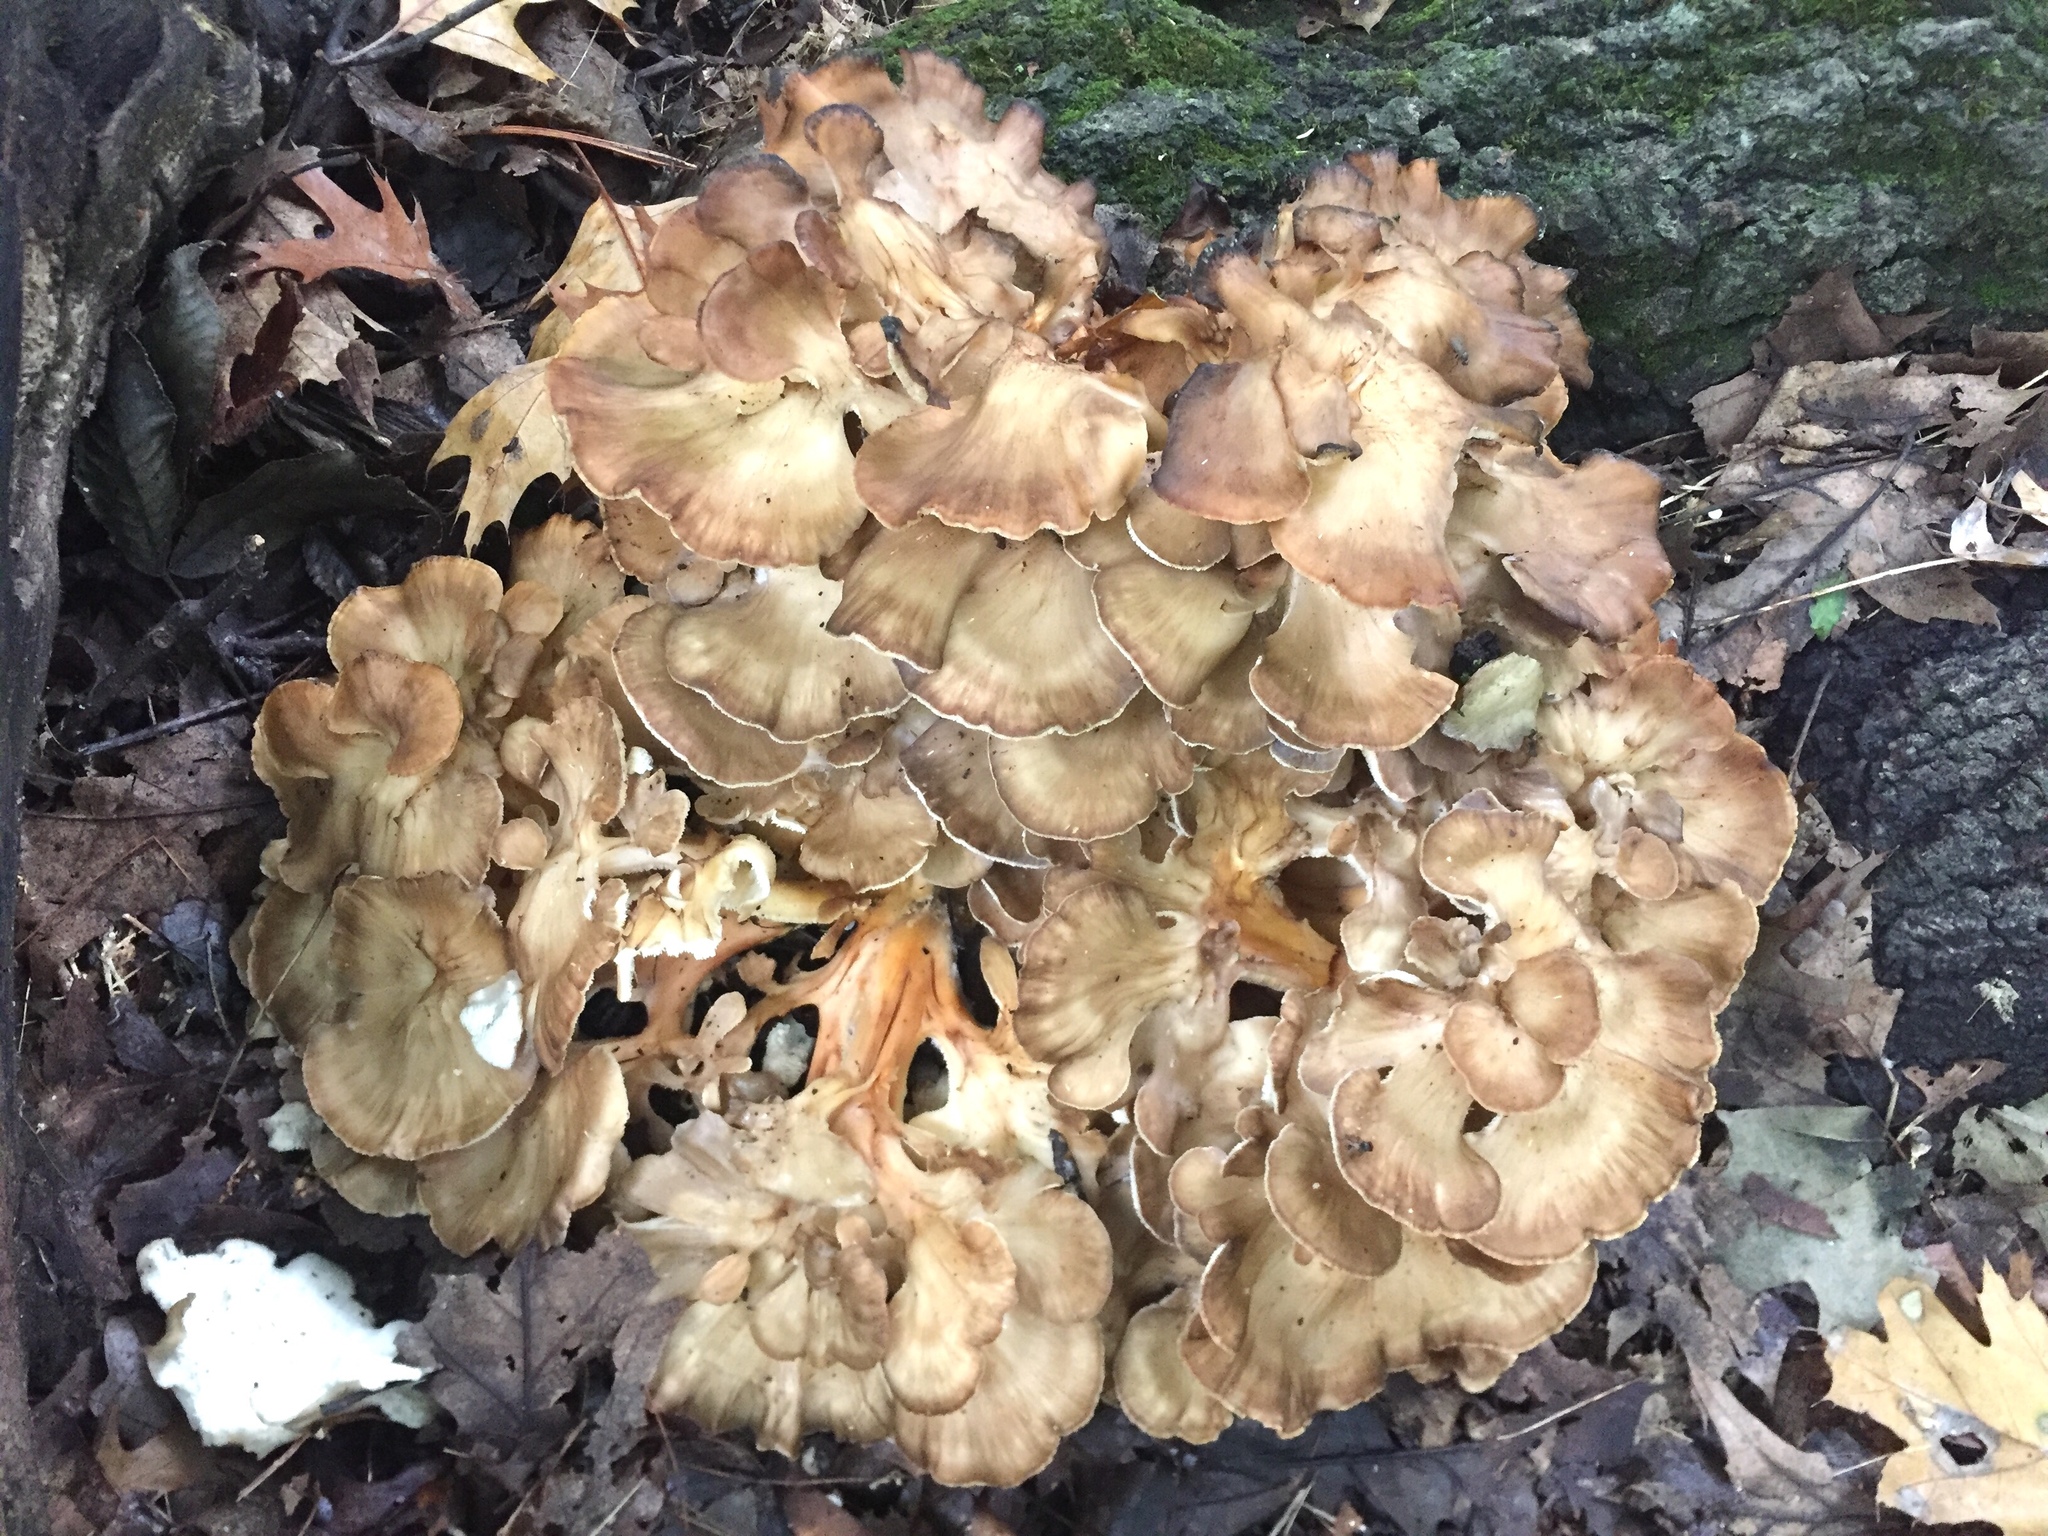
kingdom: Fungi
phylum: Basidiomycota
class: Agaricomycetes
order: Polyporales
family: Grifolaceae
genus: Grifola
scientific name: Grifola frondosa
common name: Hen of the woods
